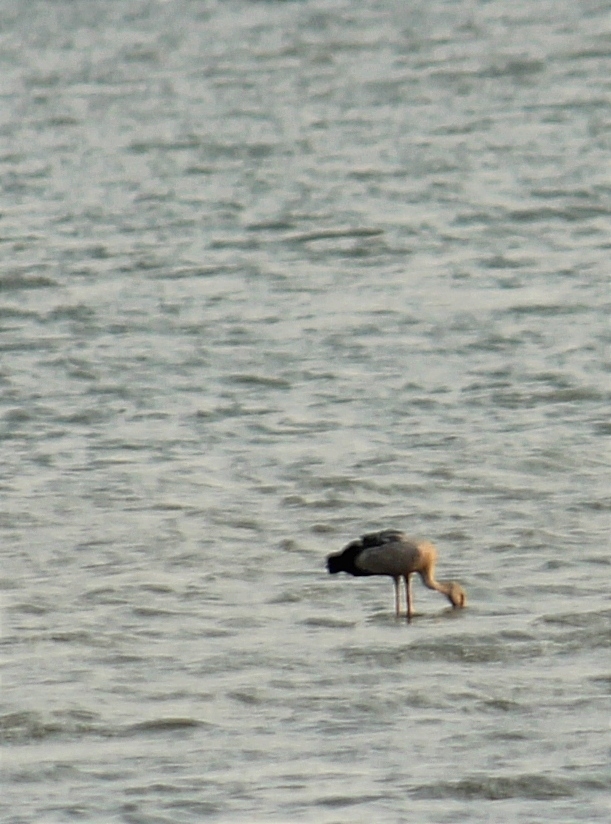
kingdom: Animalia
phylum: Chordata
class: Aves
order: Ciconiiformes
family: Ciconiidae
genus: Anastomus
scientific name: Anastomus oscitans
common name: Asian openbill
